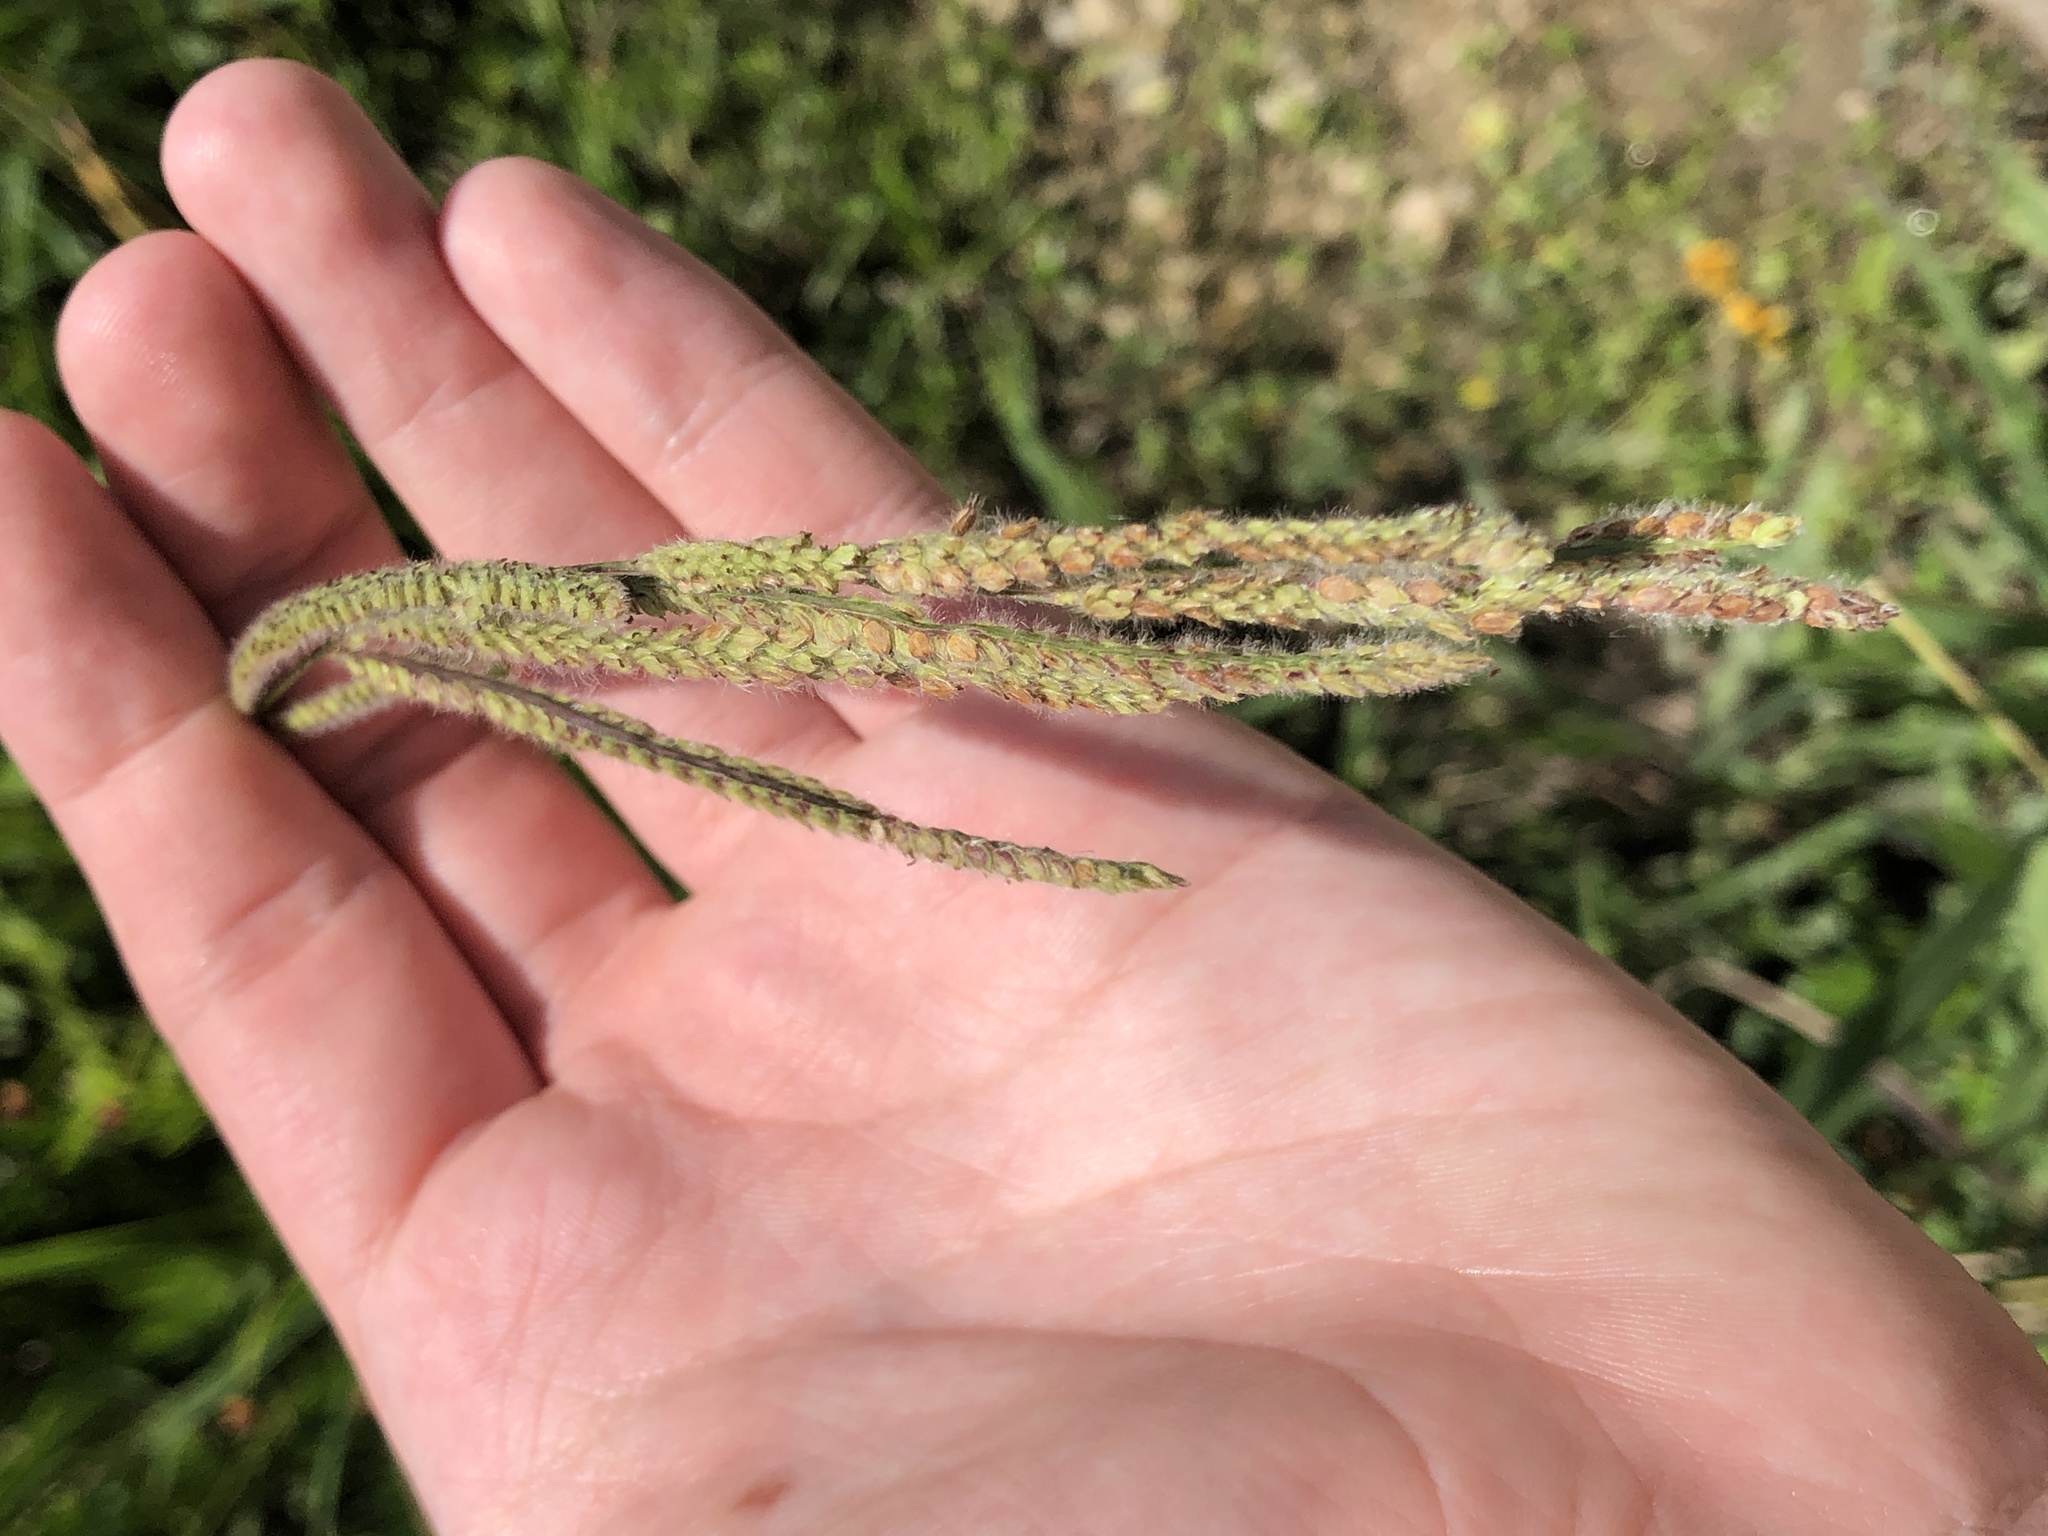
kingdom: Plantae
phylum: Tracheophyta
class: Liliopsida
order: Poales
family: Poaceae
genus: Paspalum
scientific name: Paspalum urvillei
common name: Vasey's grass
